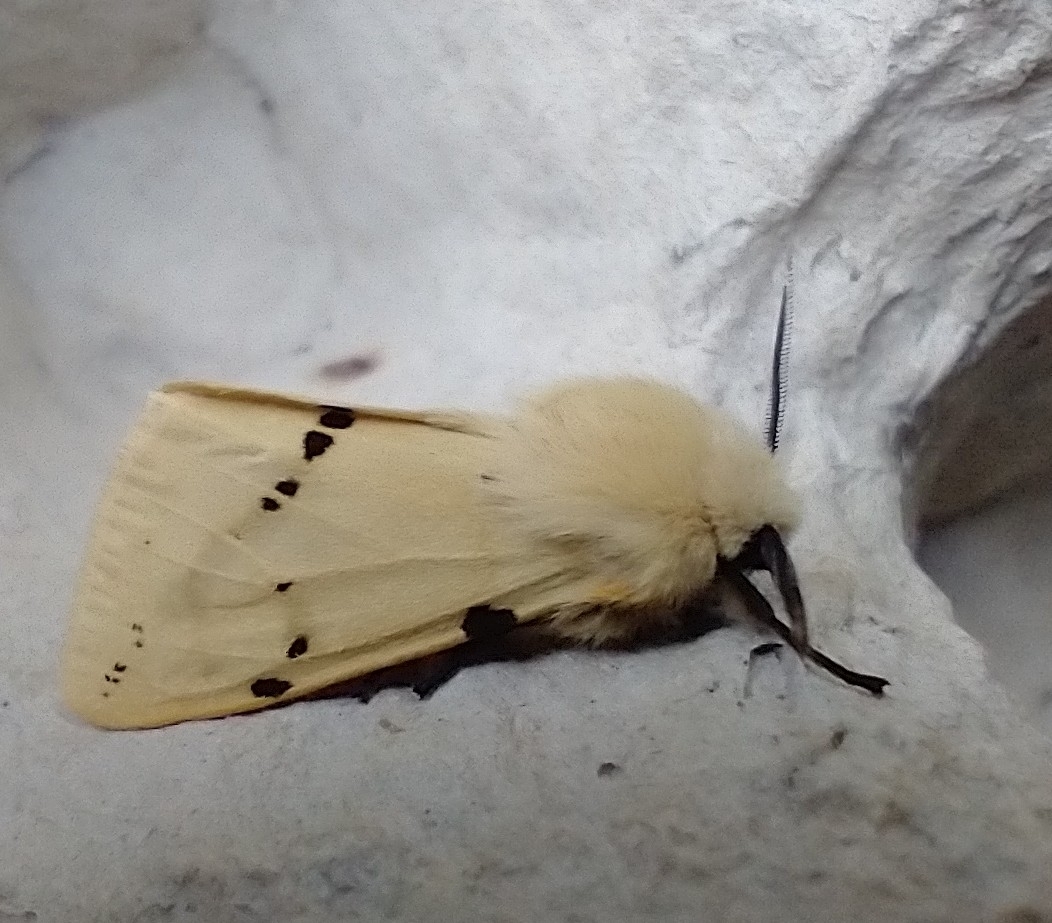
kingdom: Animalia
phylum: Arthropoda
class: Insecta
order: Lepidoptera
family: Erebidae
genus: Spilarctia
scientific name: Spilarctia lutea
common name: Buff ermine
